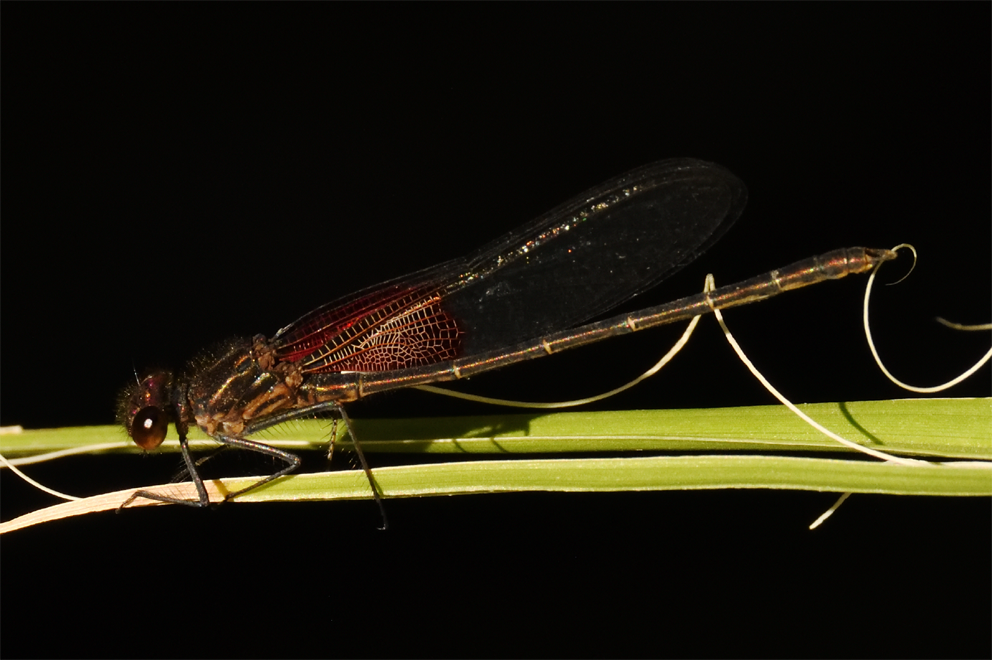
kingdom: Animalia
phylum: Arthropoda
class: Insecta
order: Odonata
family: Calopterygidae
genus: Hetaerina
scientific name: Hetaerina americana
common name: American rubyspot
